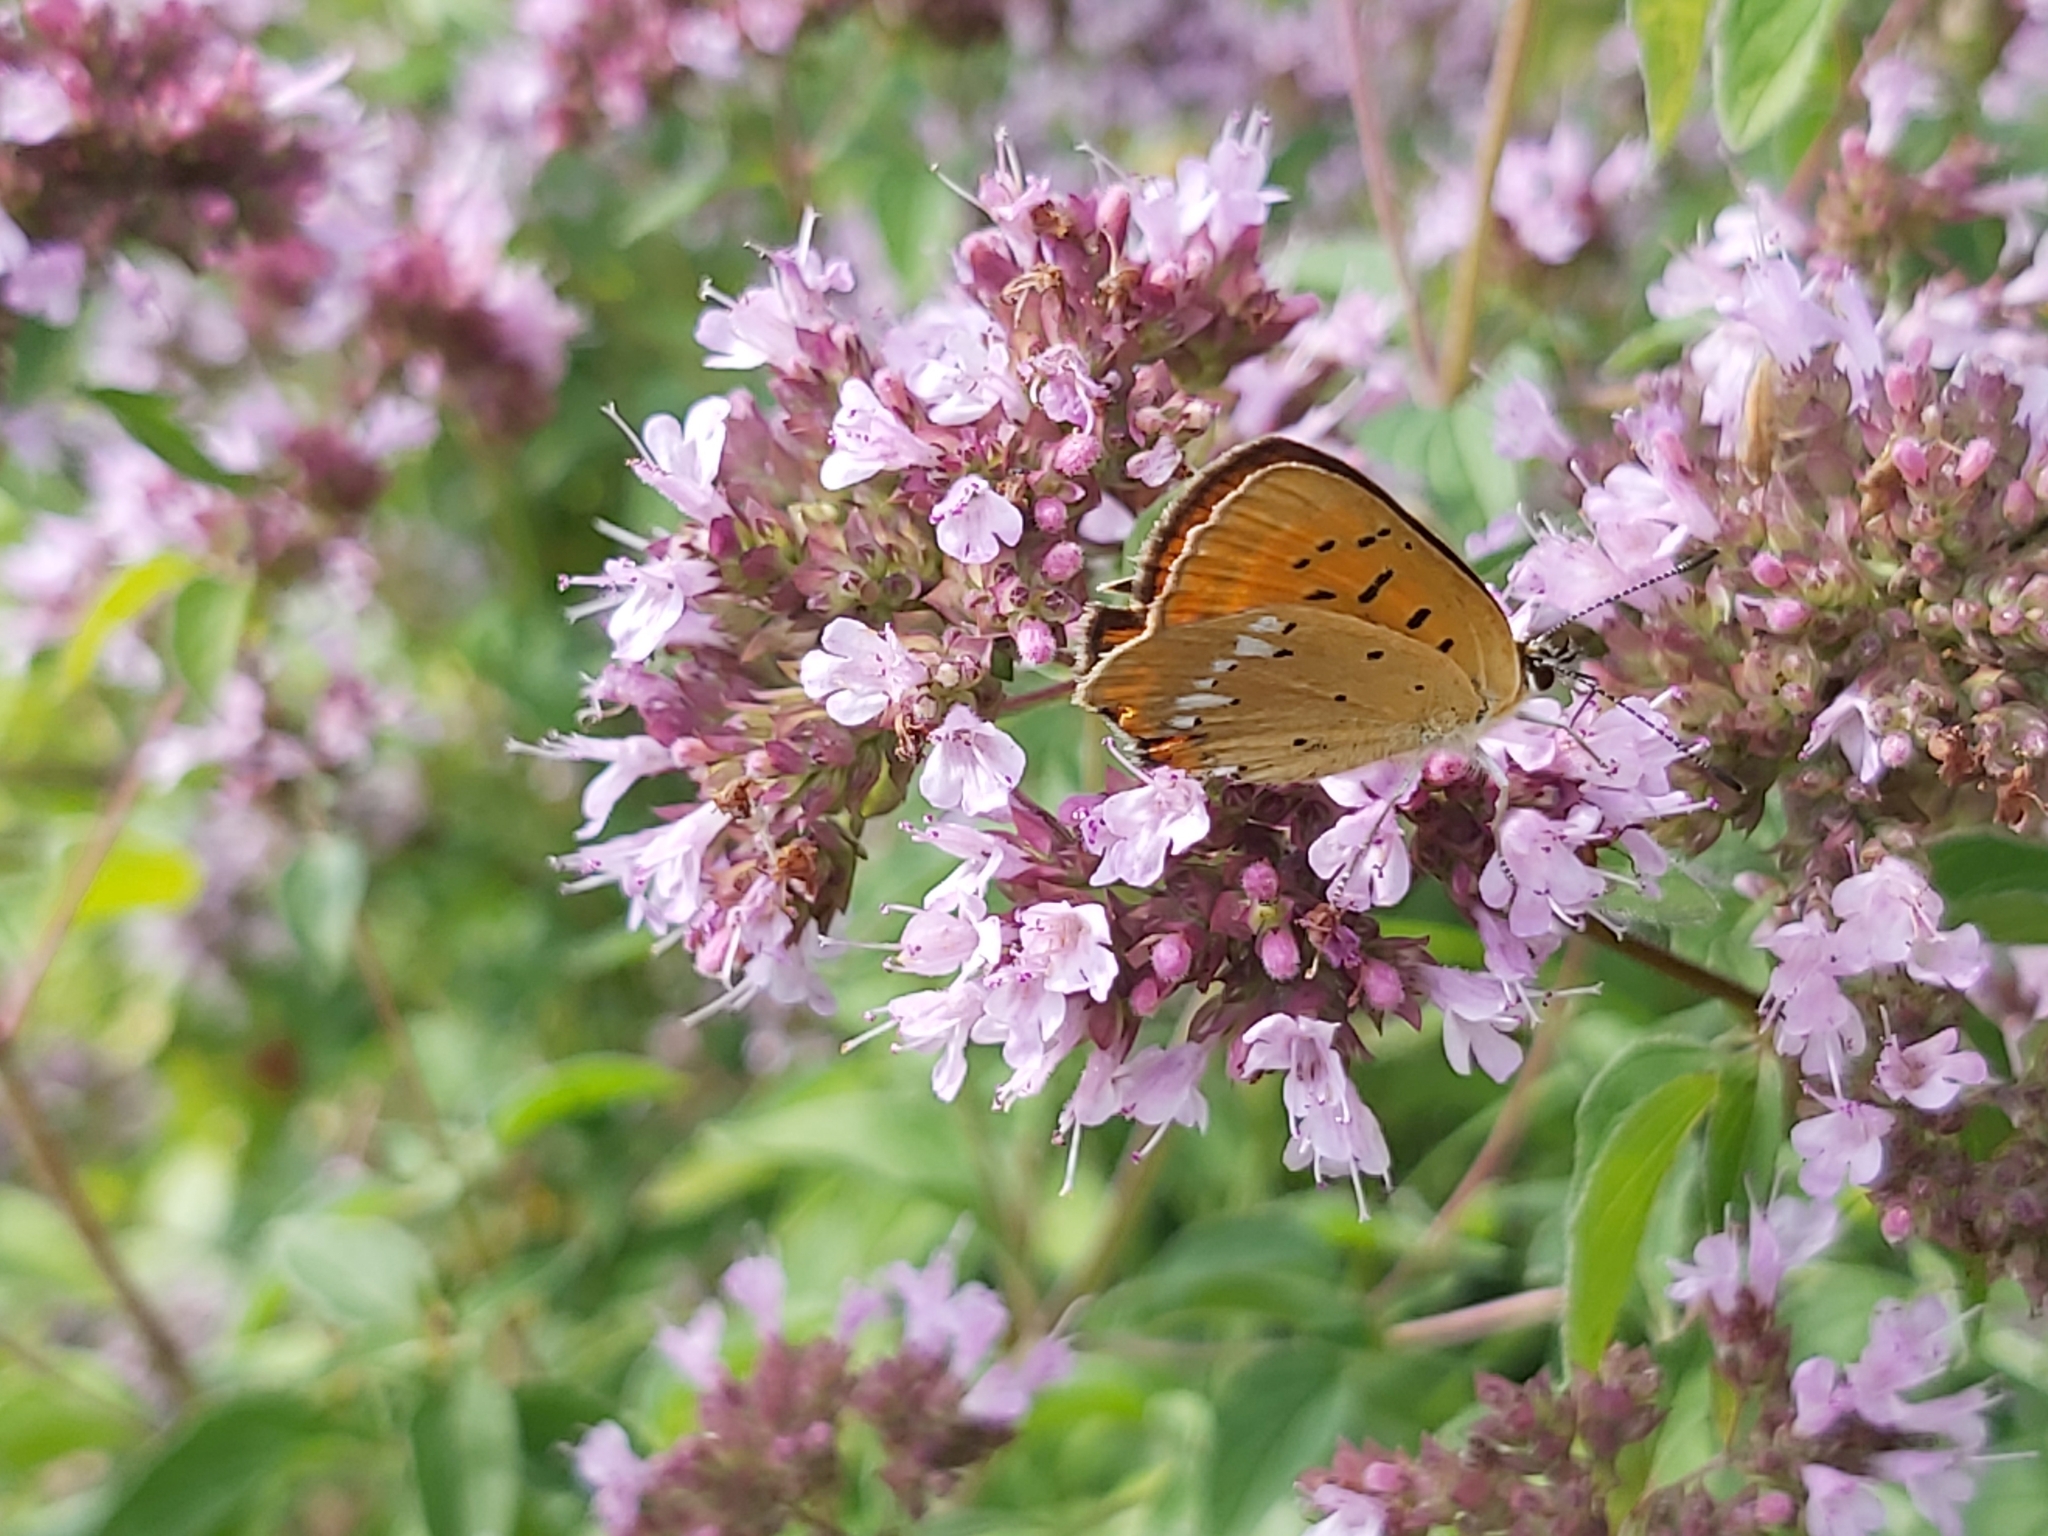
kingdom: Animalia
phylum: Arthropoda
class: Insecta
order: Lepidoptera
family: Lycaenidae
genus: Lycaena
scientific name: Lycaena virgaureae
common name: Scarce copper
